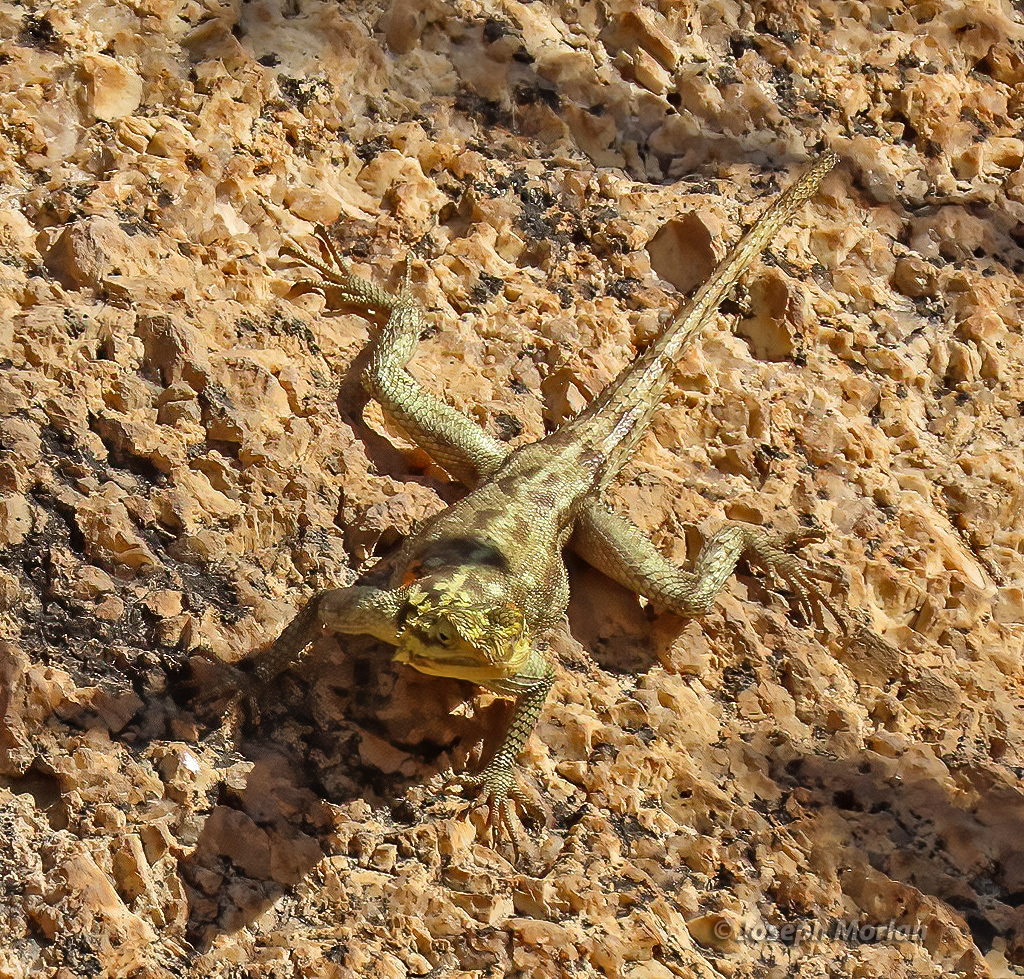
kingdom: Animalia
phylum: Chordata
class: Squamata
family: Agamidae
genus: Agama
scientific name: Agama planiceps
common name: Namib rock agama
